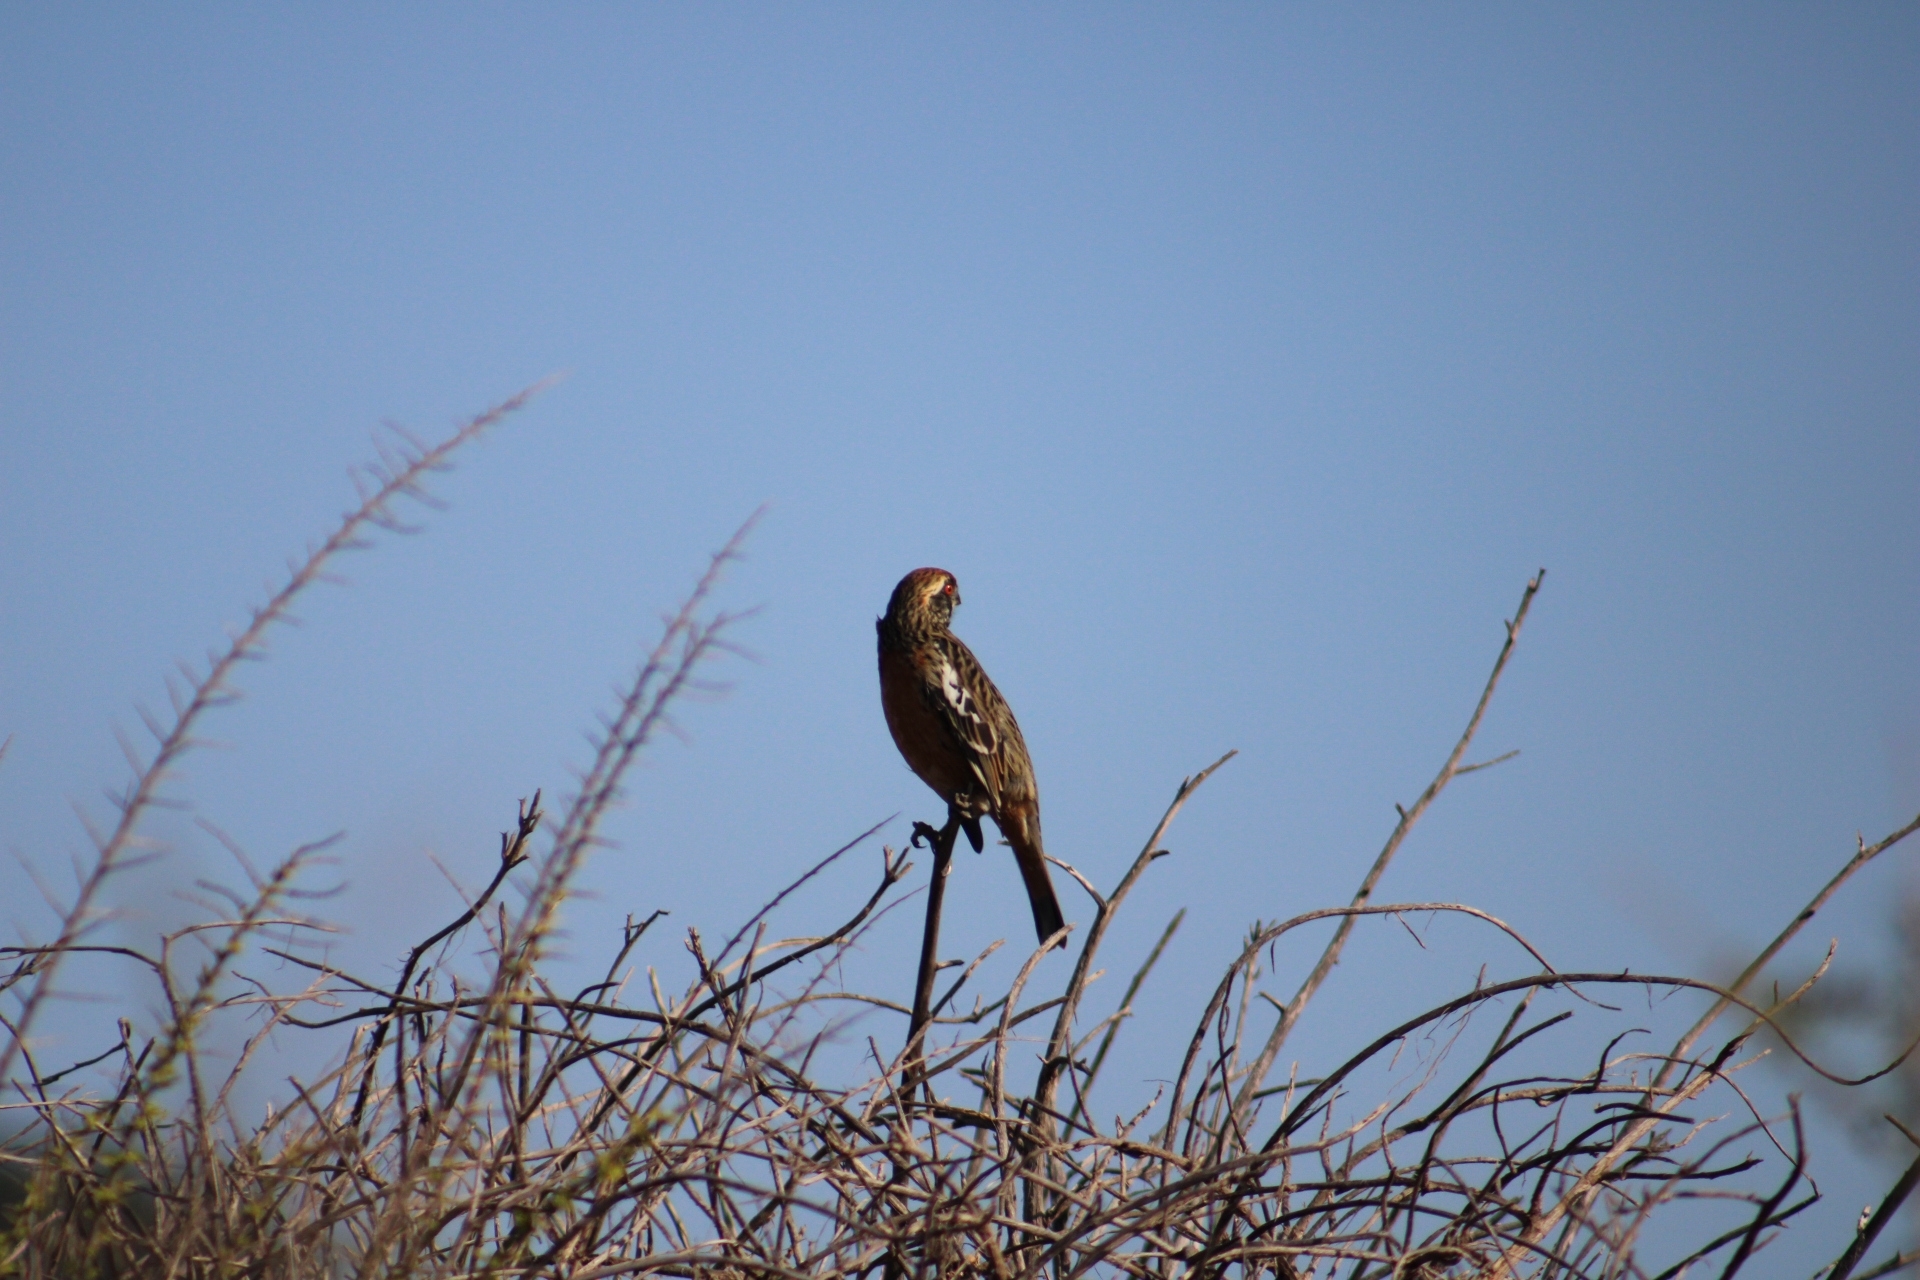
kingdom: Animalia
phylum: Chordata
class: Aves
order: Passeriformes
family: Cotingidae
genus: Phytotoma
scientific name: Phytotoma rara
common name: Rufous-tailed plantcutter
